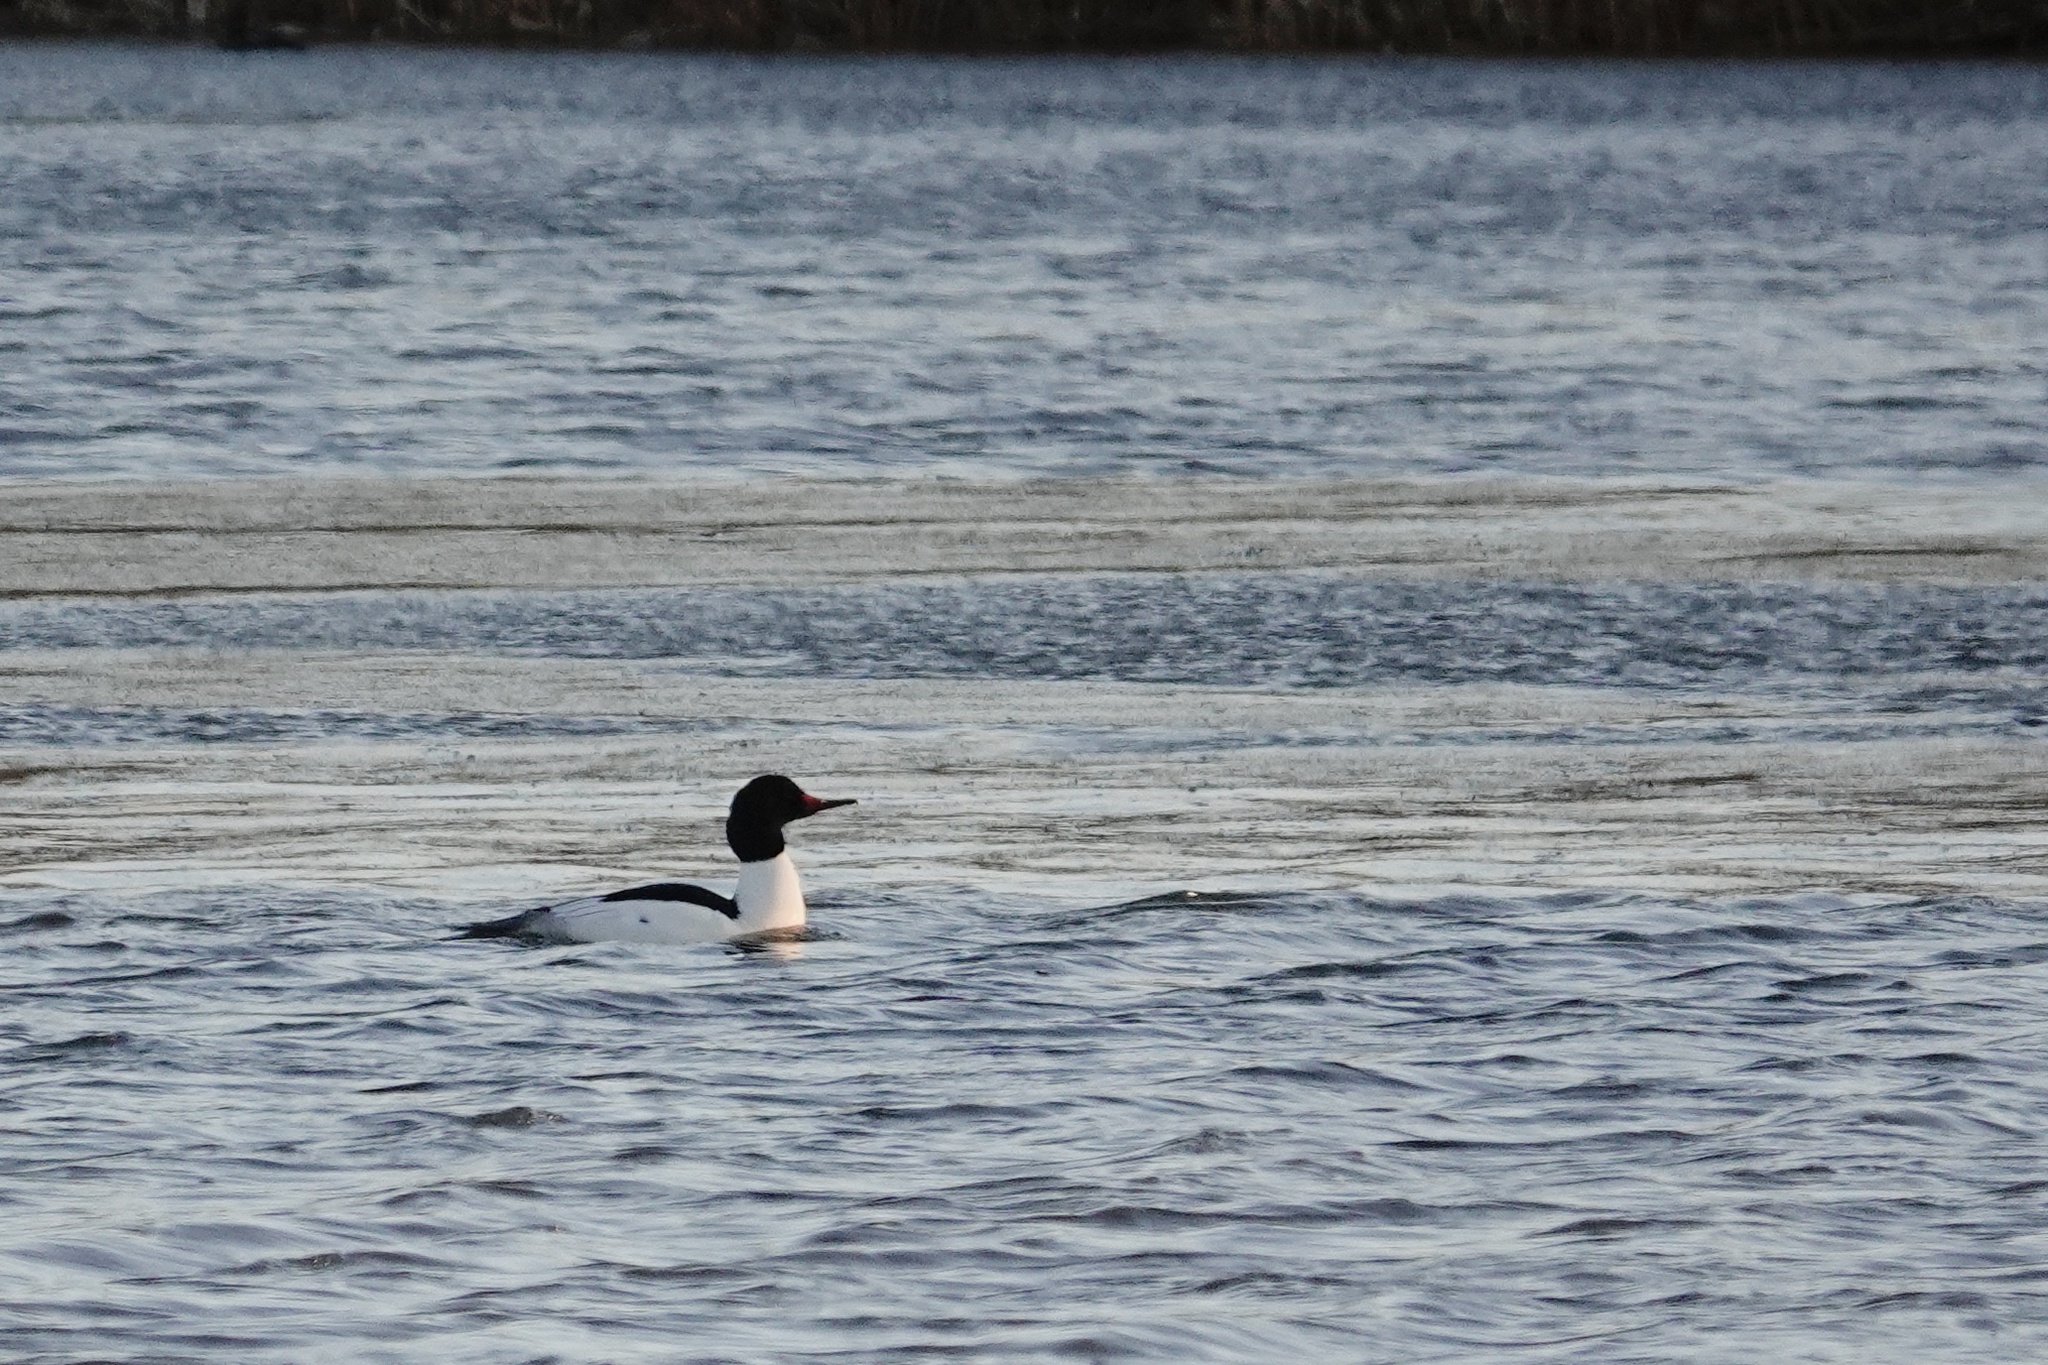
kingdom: Animalia
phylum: Chordata
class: Aves
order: Anseriformes
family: Anatidae
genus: Mergus
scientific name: Mergus merganser
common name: Common merganser
